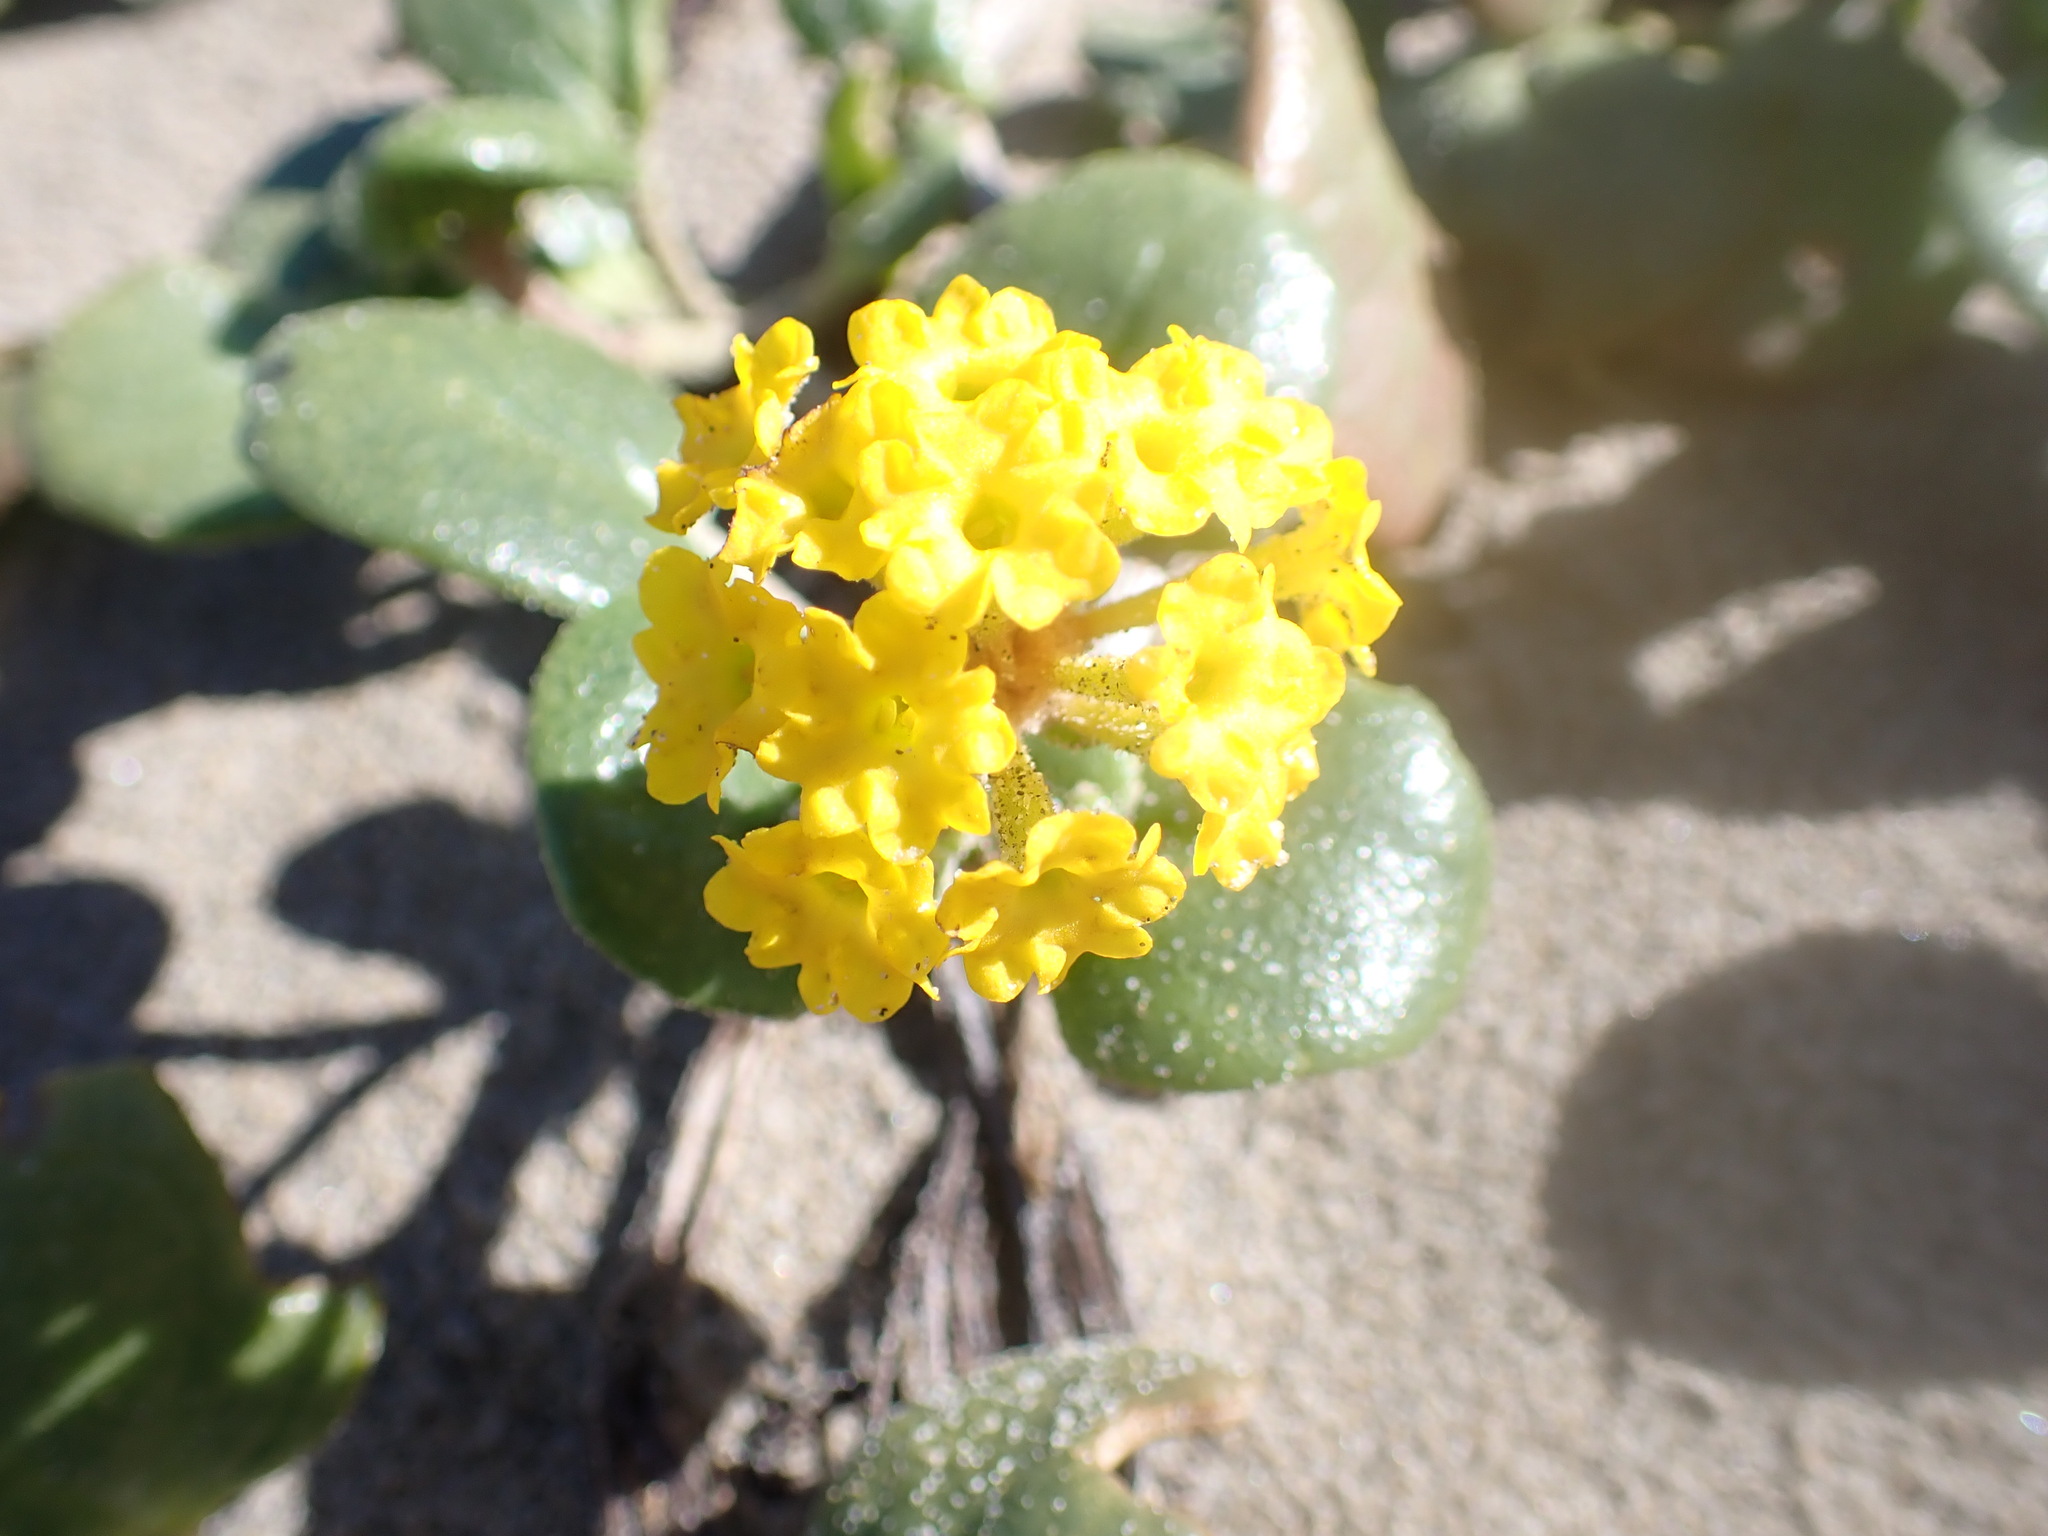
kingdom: Plantae
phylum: Tracheophyta
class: Magnoliopsida
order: Caryophyllales
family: Nyctaginaceae
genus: Abronia
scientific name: Abronia latifolia
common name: Yellow sand-verbena
